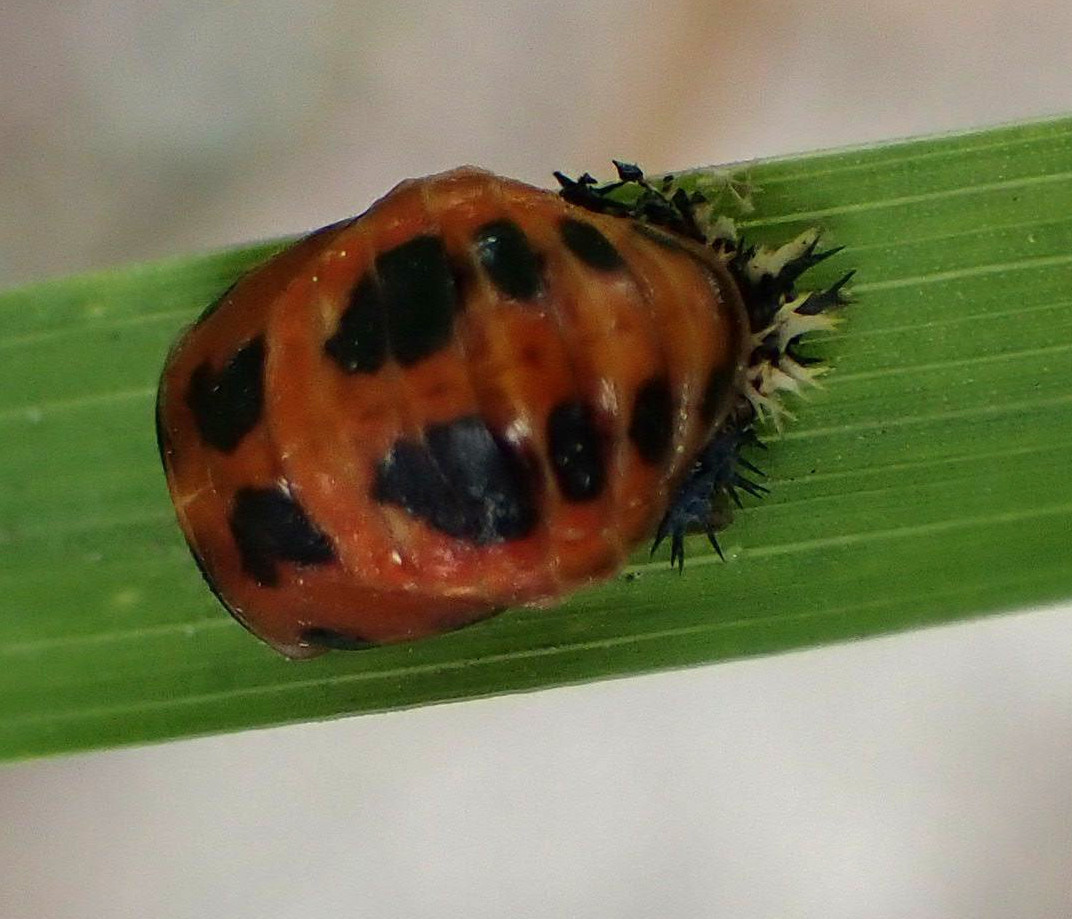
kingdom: Animalia
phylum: Arthropoda
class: Insecta
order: Coleoptera
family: Coccinellidae
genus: Harmonia
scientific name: Harmonia axyridis
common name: Harlequin ladybird
